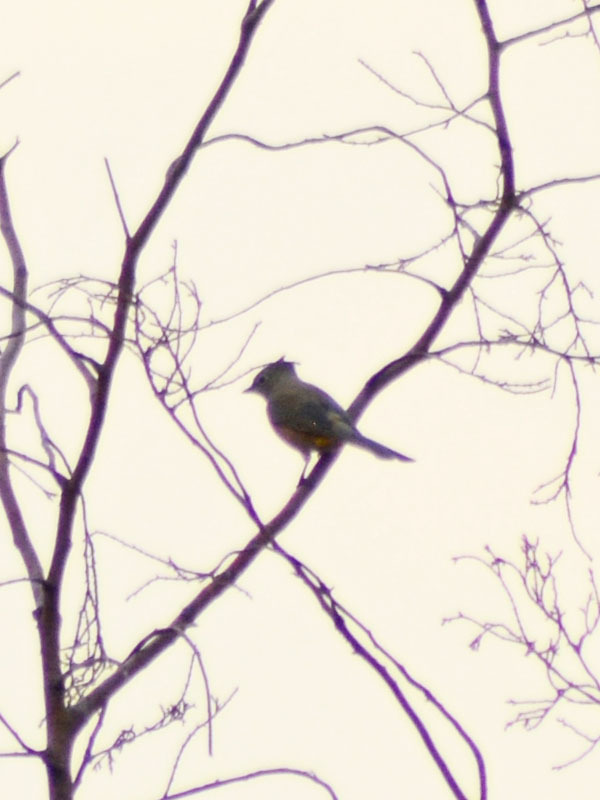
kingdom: Animalia
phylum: Chordata
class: Aves
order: Passeriformes
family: Ptilogonatidae
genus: Ptilogonys
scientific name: Ptilogonys cinereus
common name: Gray silky-flycatcher
